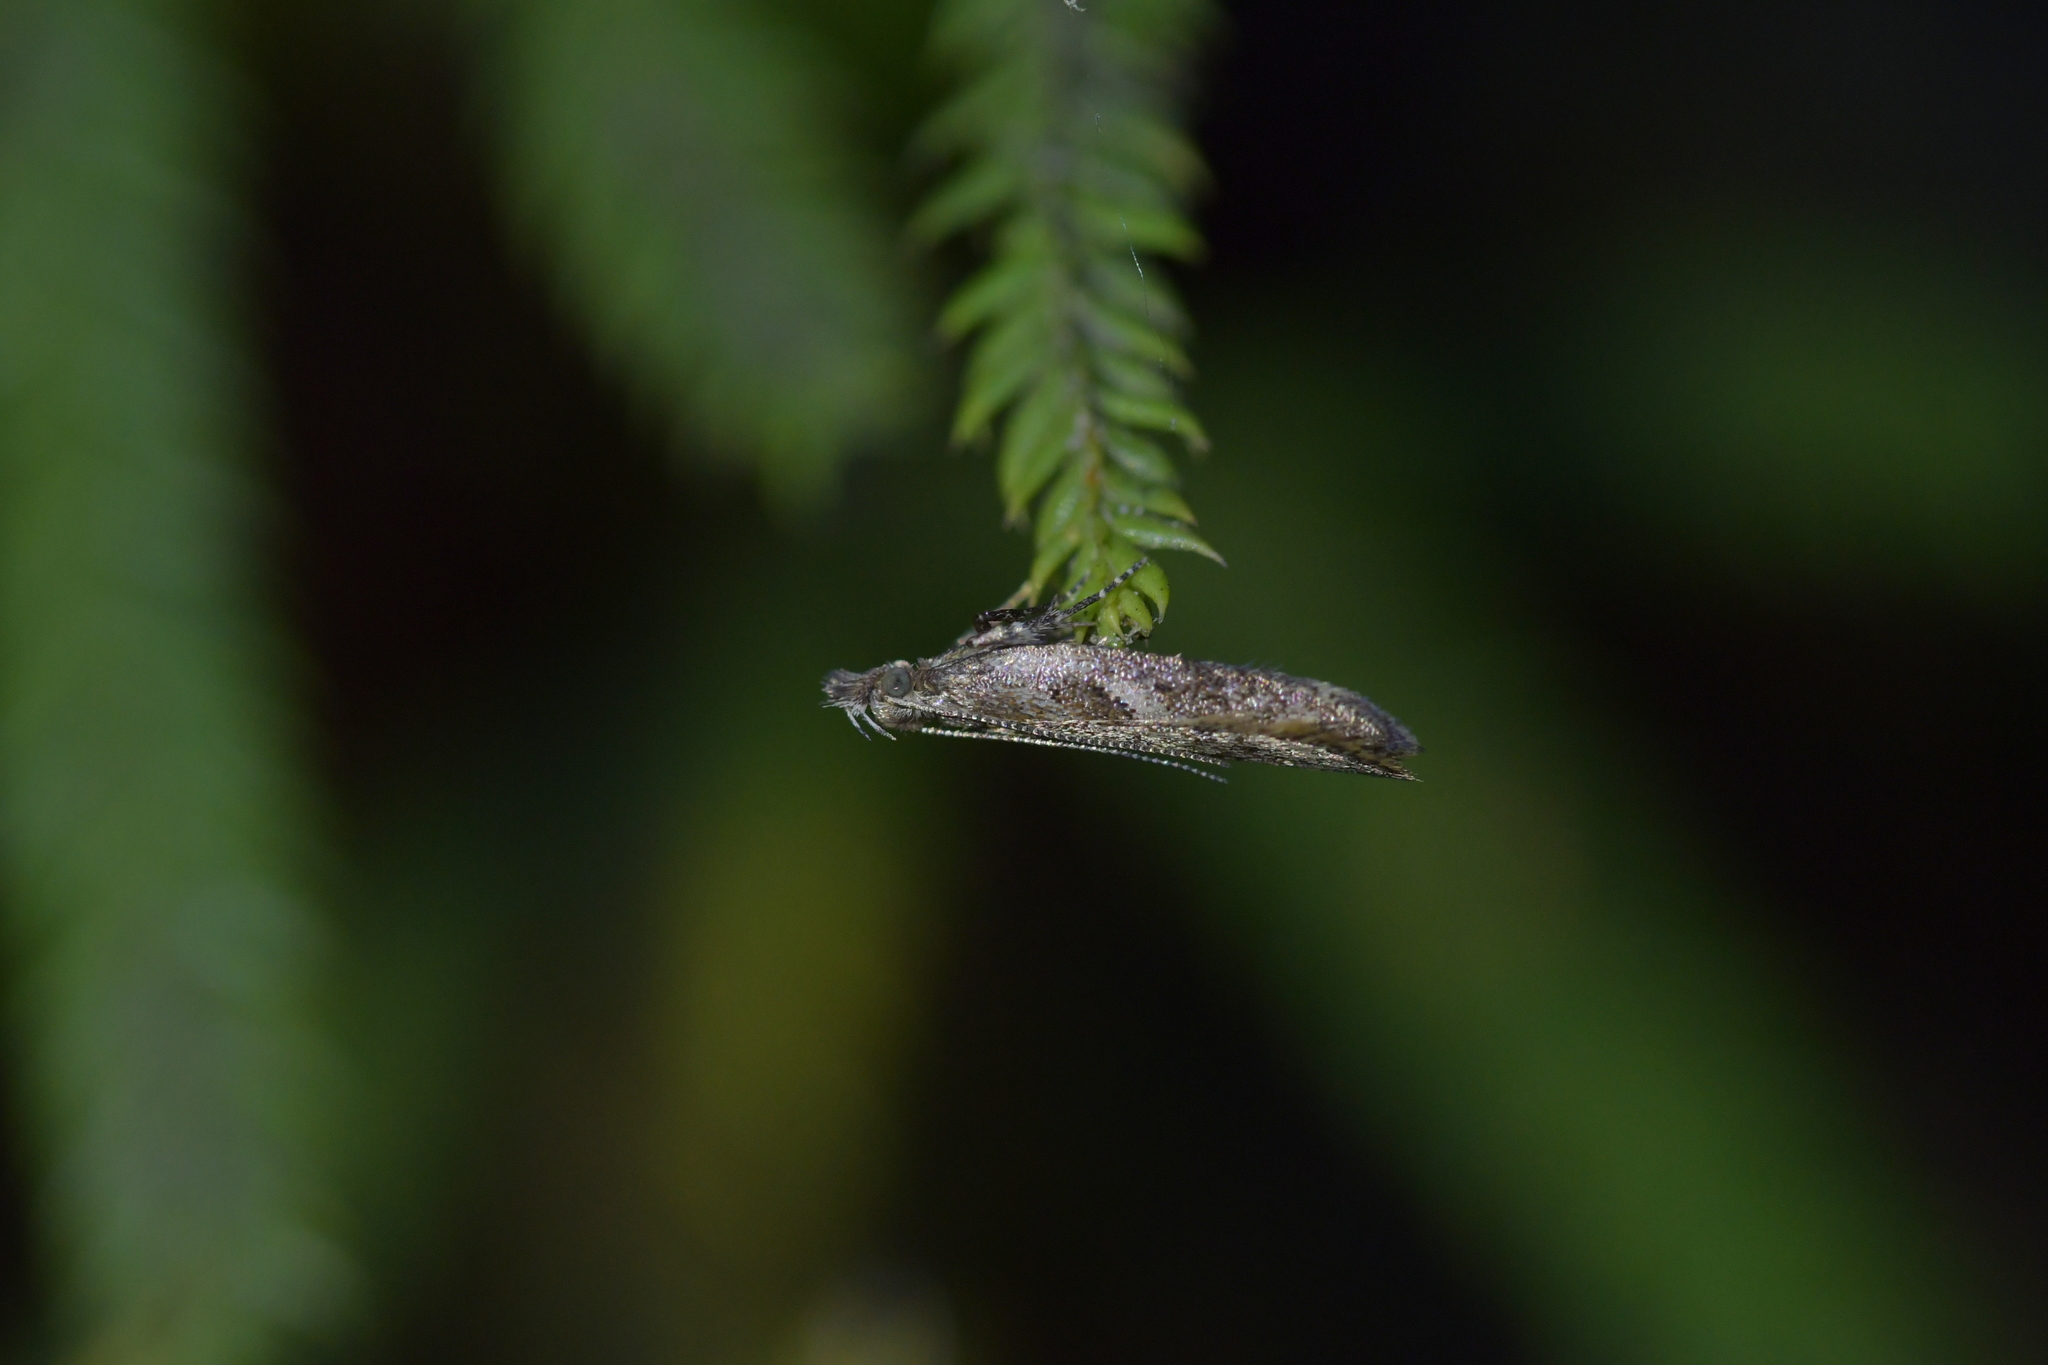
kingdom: Animalia
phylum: Arthropoda
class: Insecta
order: Lepidoptera
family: Oecophoridae
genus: Thamnosara
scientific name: Thamnosara sublitella
